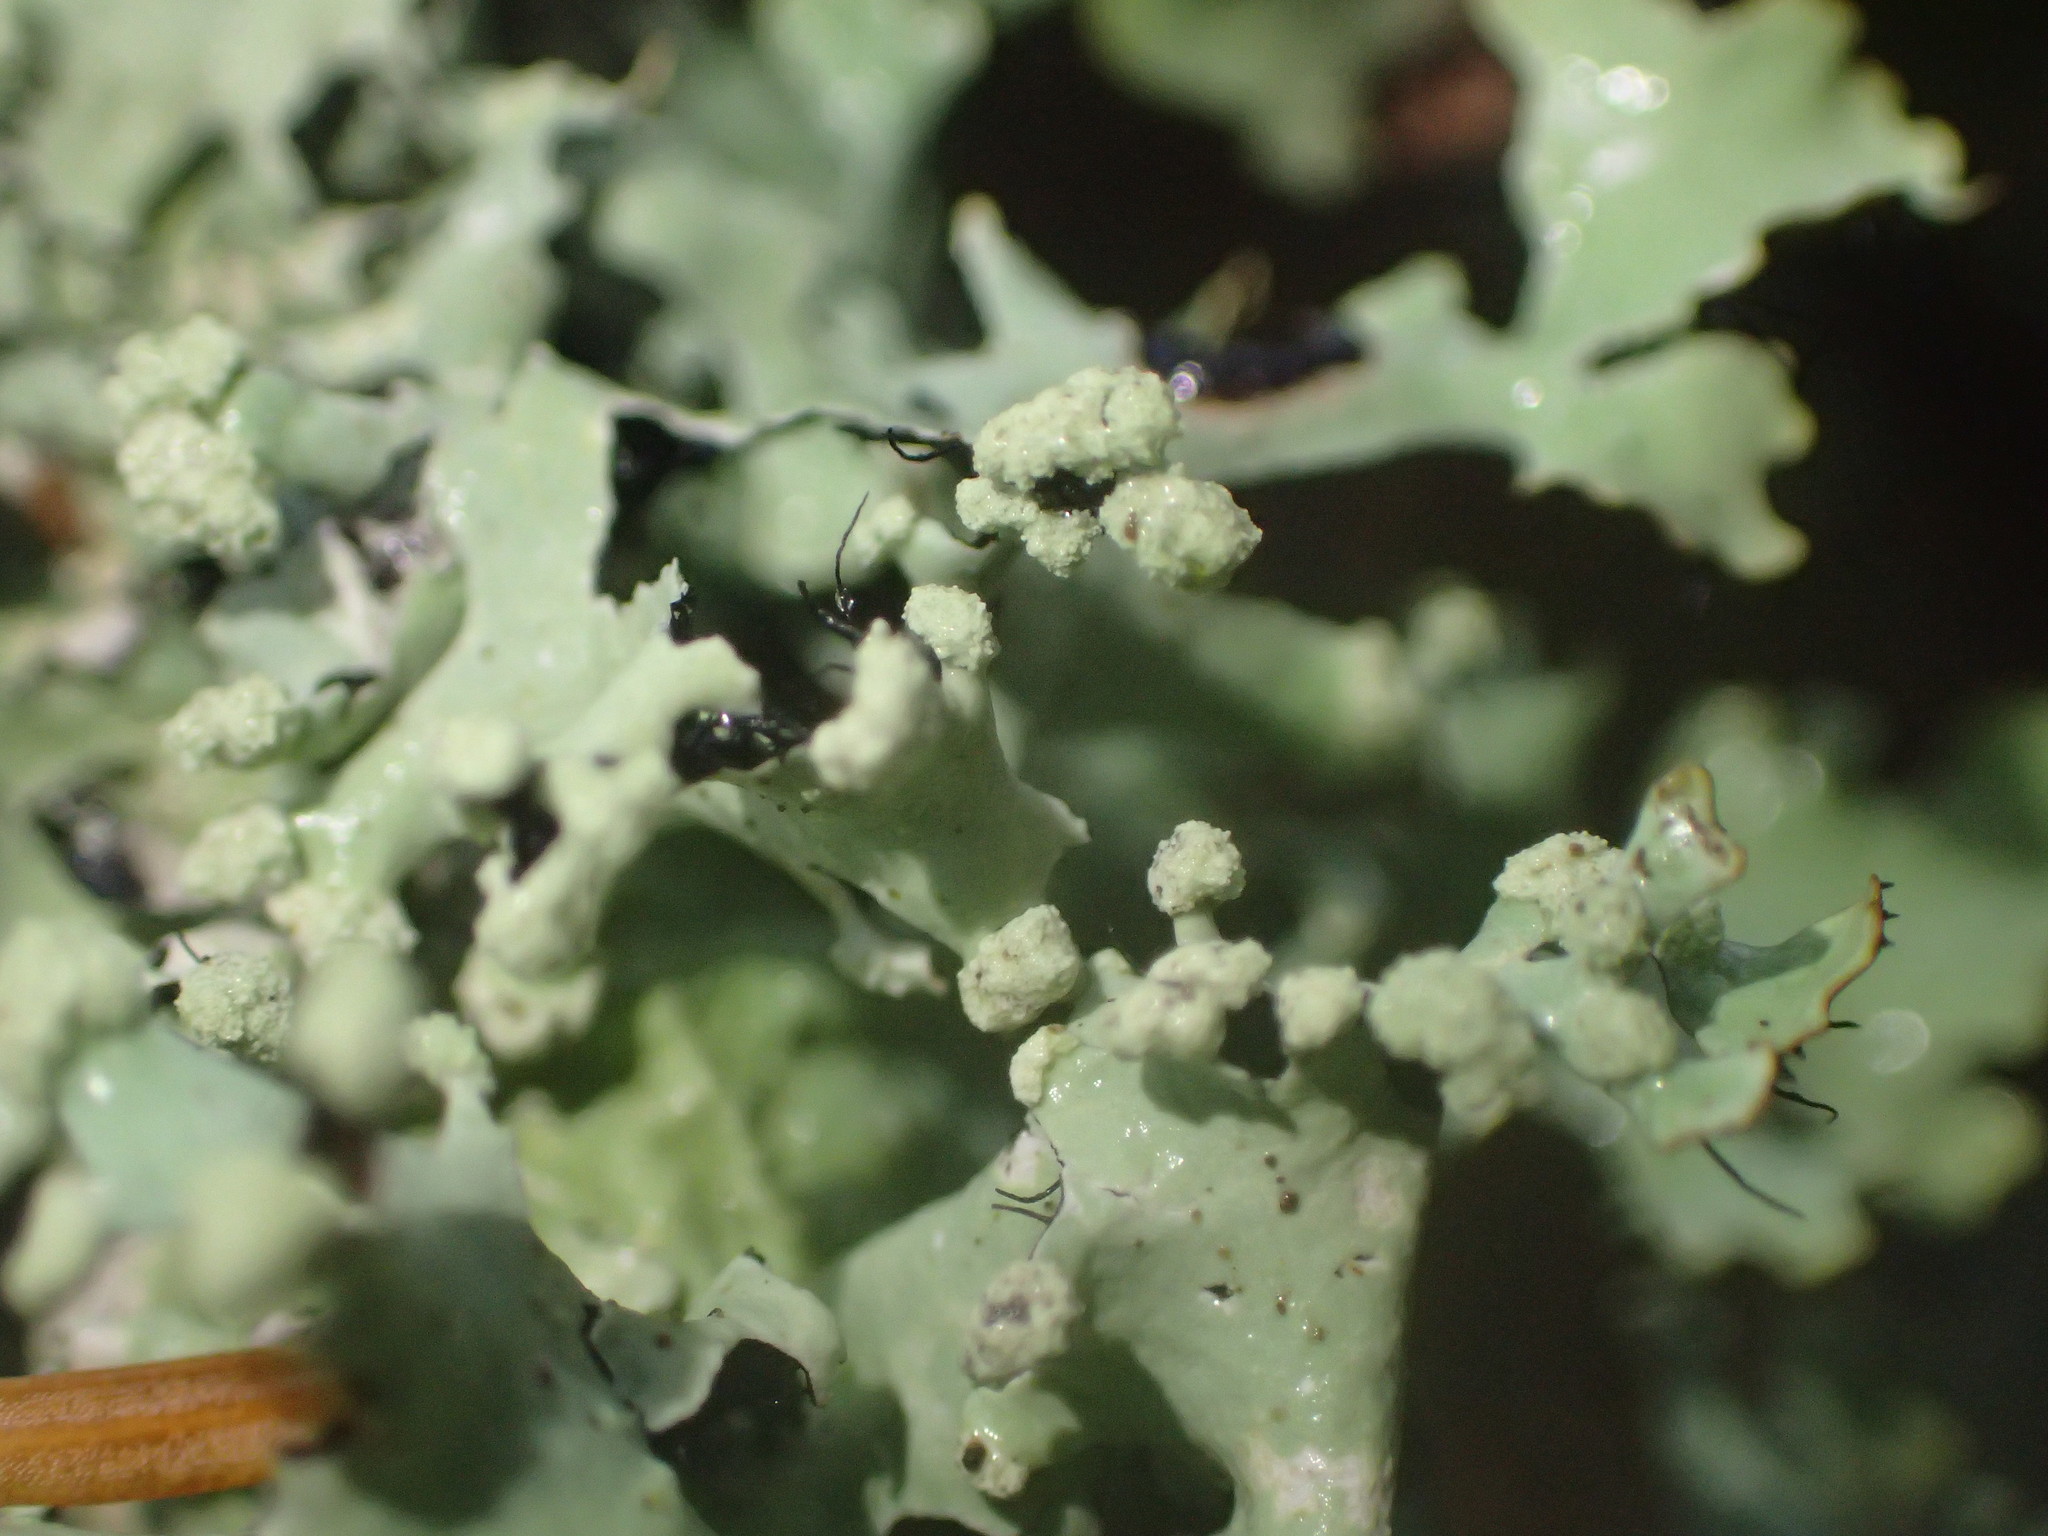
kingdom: Fungi
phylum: Ascomycota
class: Lecanoromycetes
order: Lecanorales
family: Parmeliaceae
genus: Parmotrema
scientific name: Parmotrema perlatum
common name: Black stone flower
